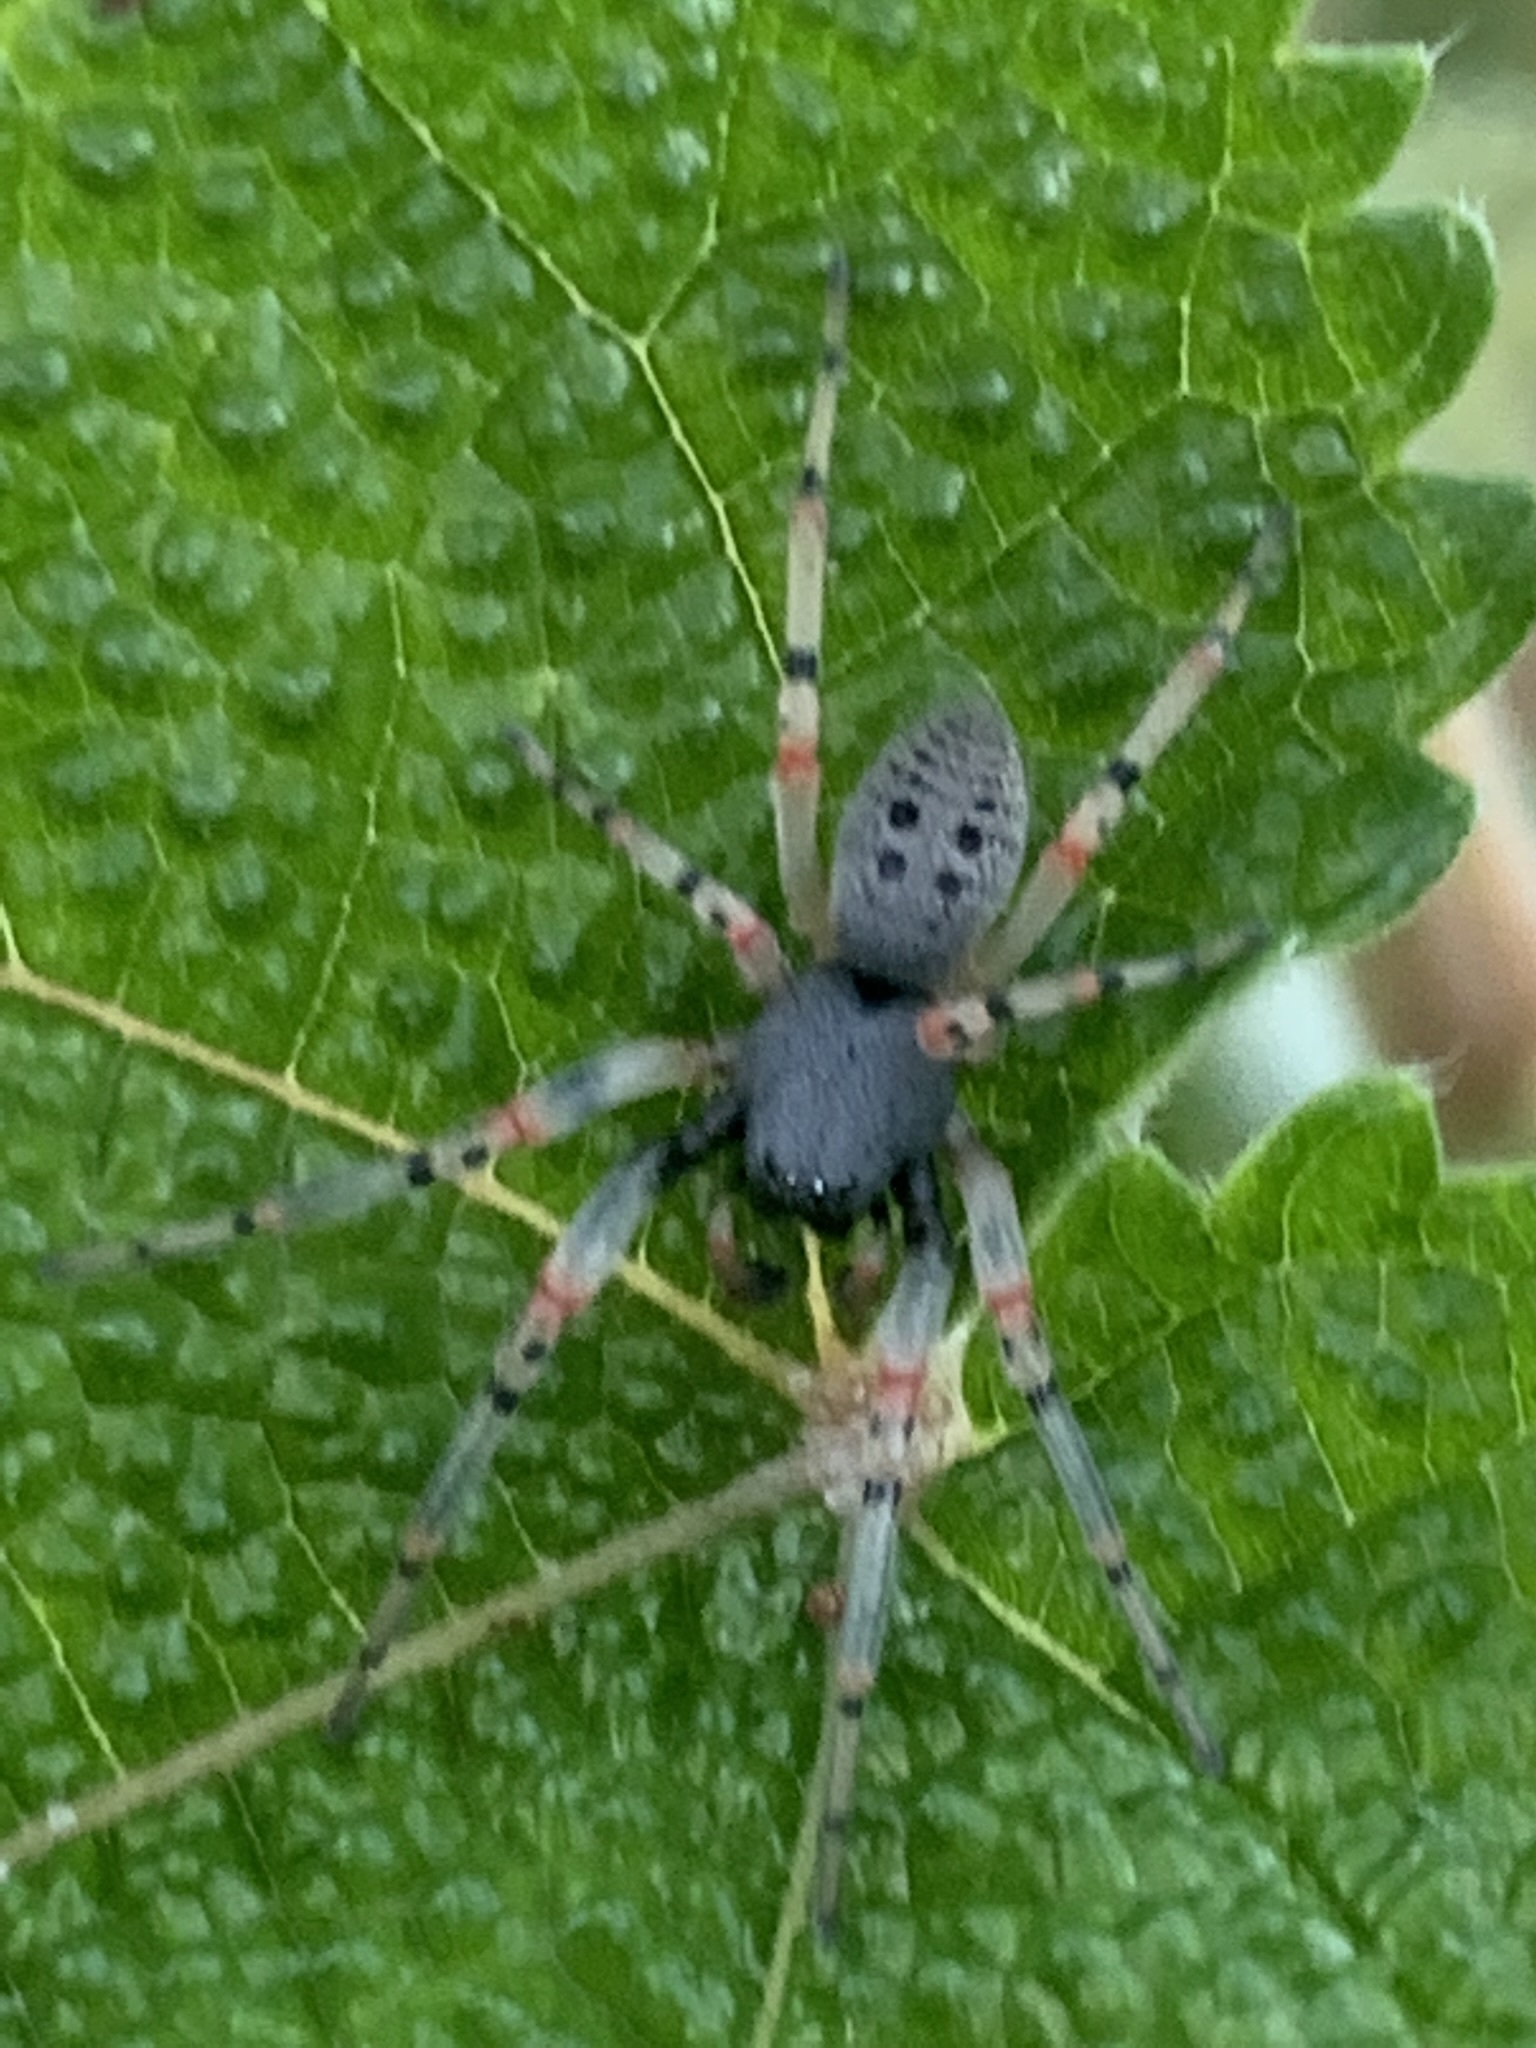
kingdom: Animalia
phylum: Arthropoda
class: Arachnida
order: Araneae
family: Trachelidae
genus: Trachelopachys
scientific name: Trachelopachys
